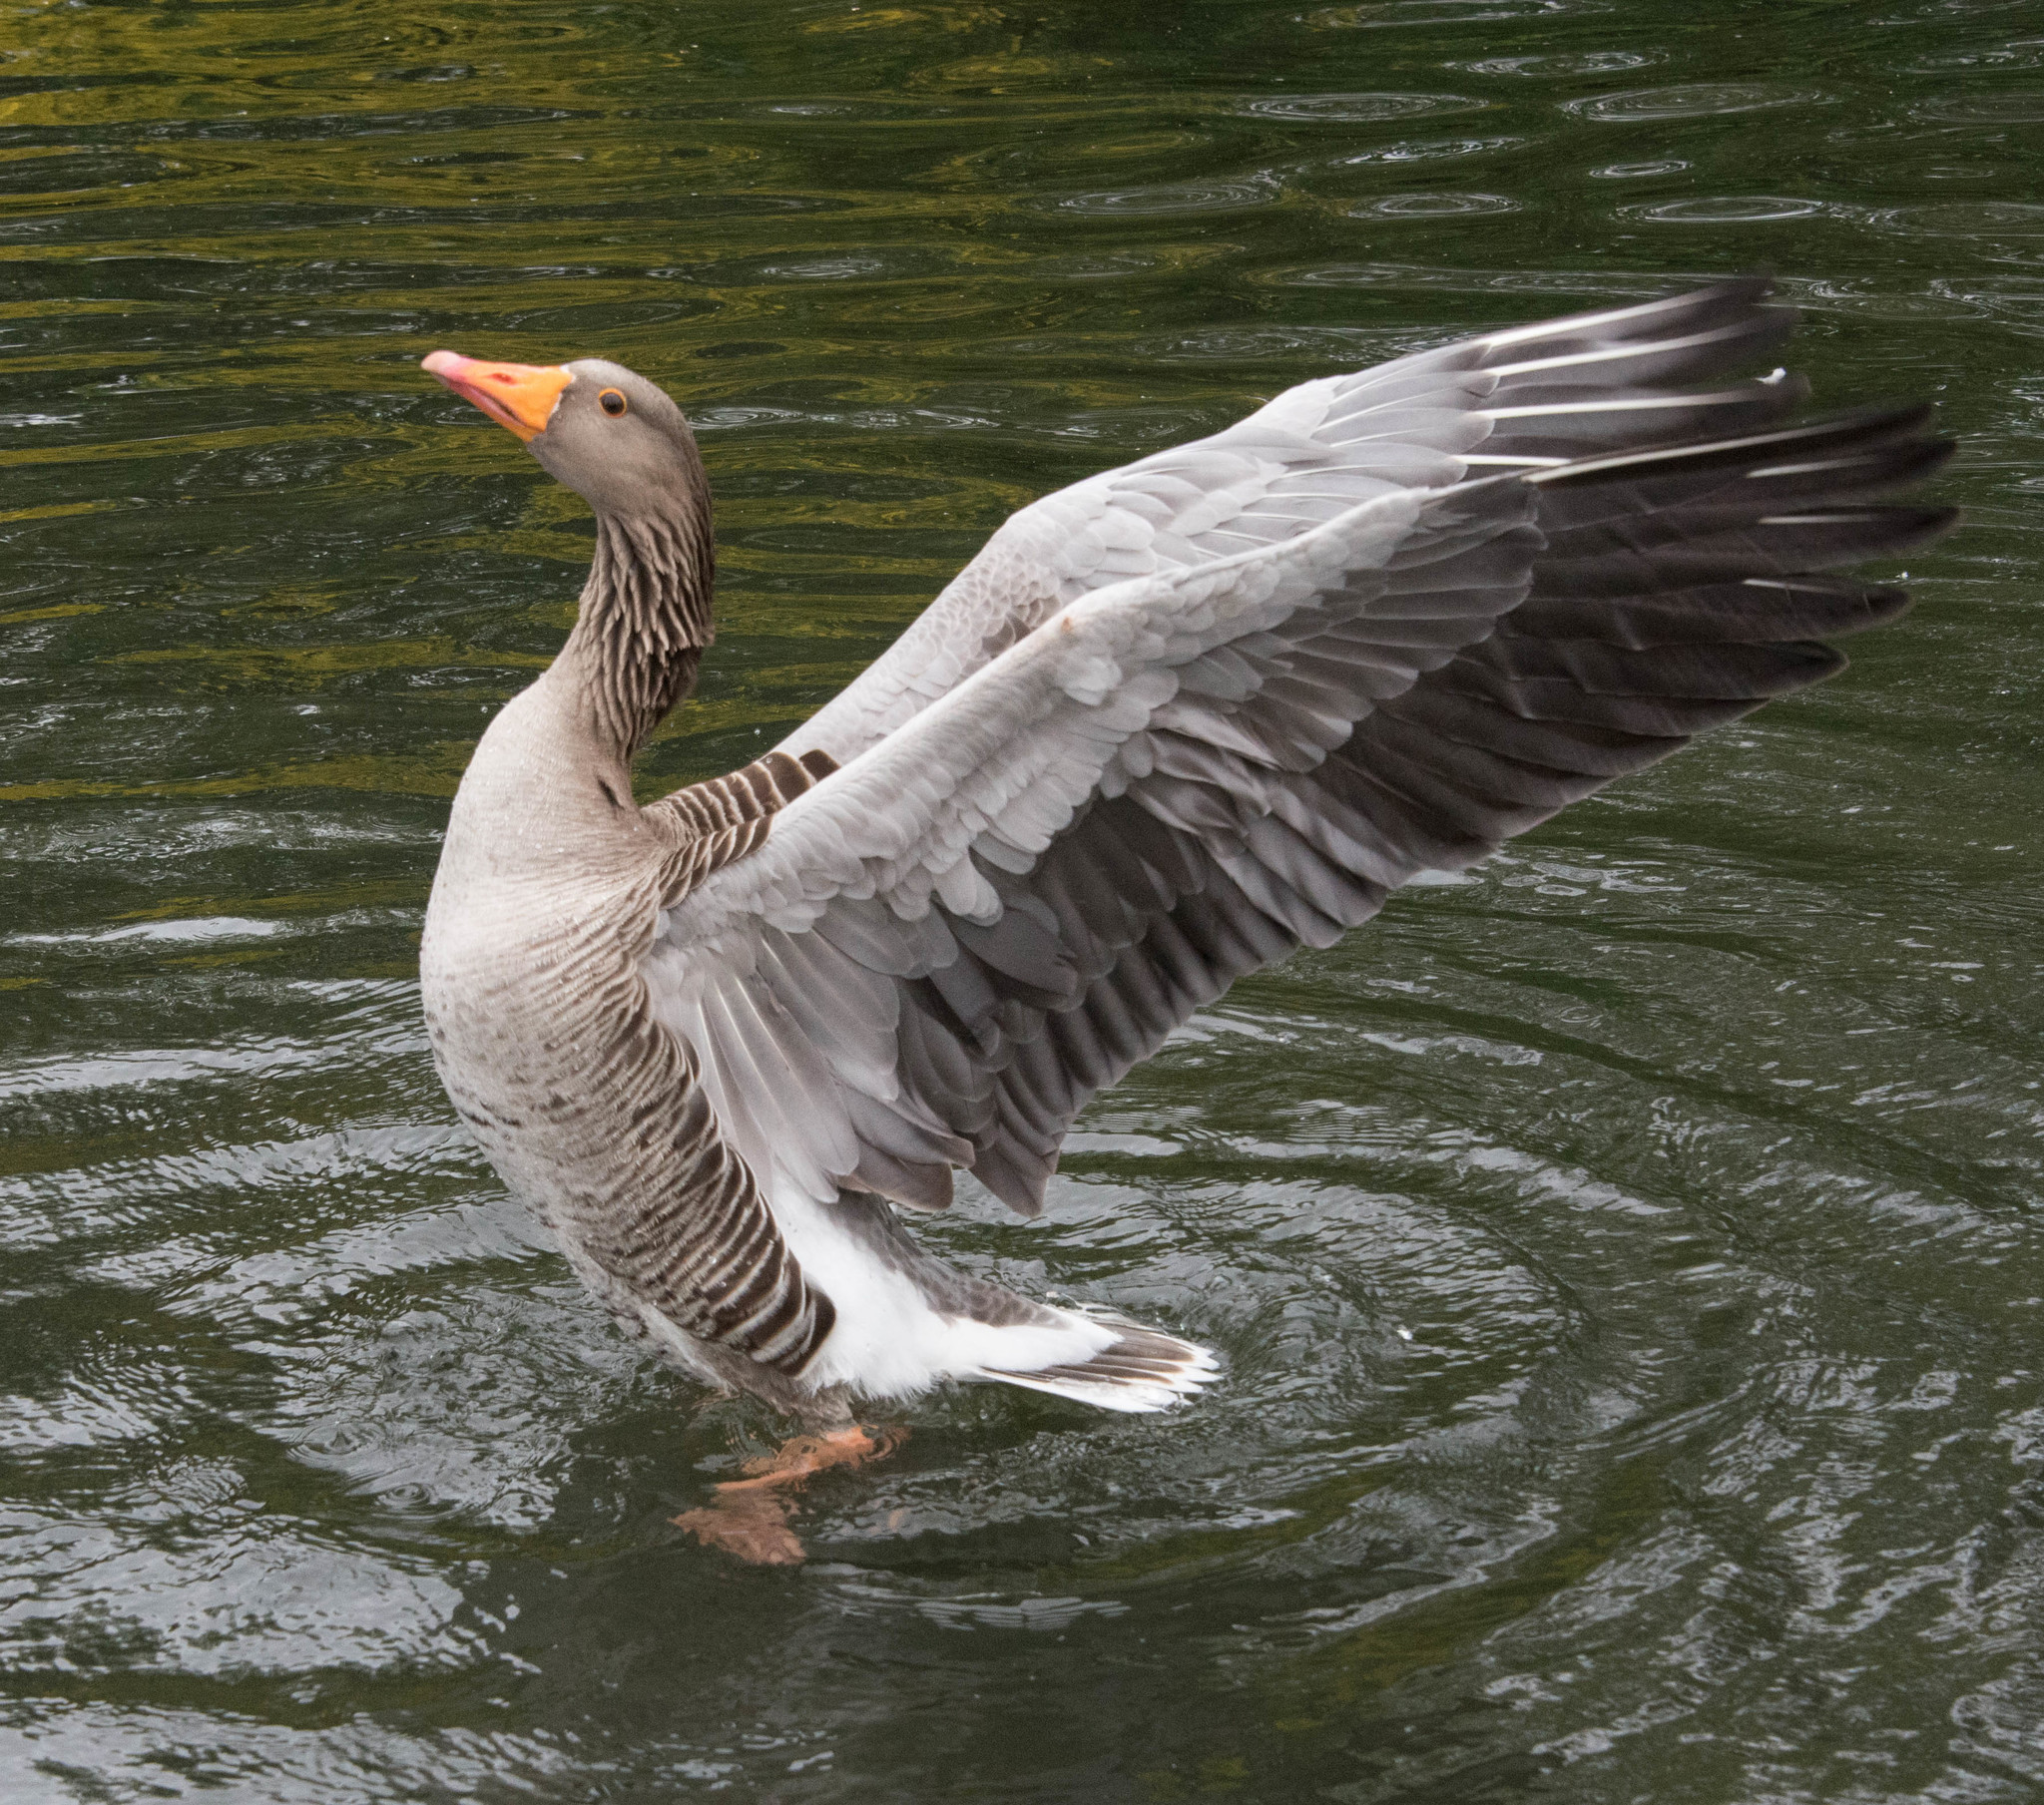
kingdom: Animalia
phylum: Chordata
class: Aves
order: Anseriformes
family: Anatidae
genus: Anser
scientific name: Anser anser
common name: Greylag goose
